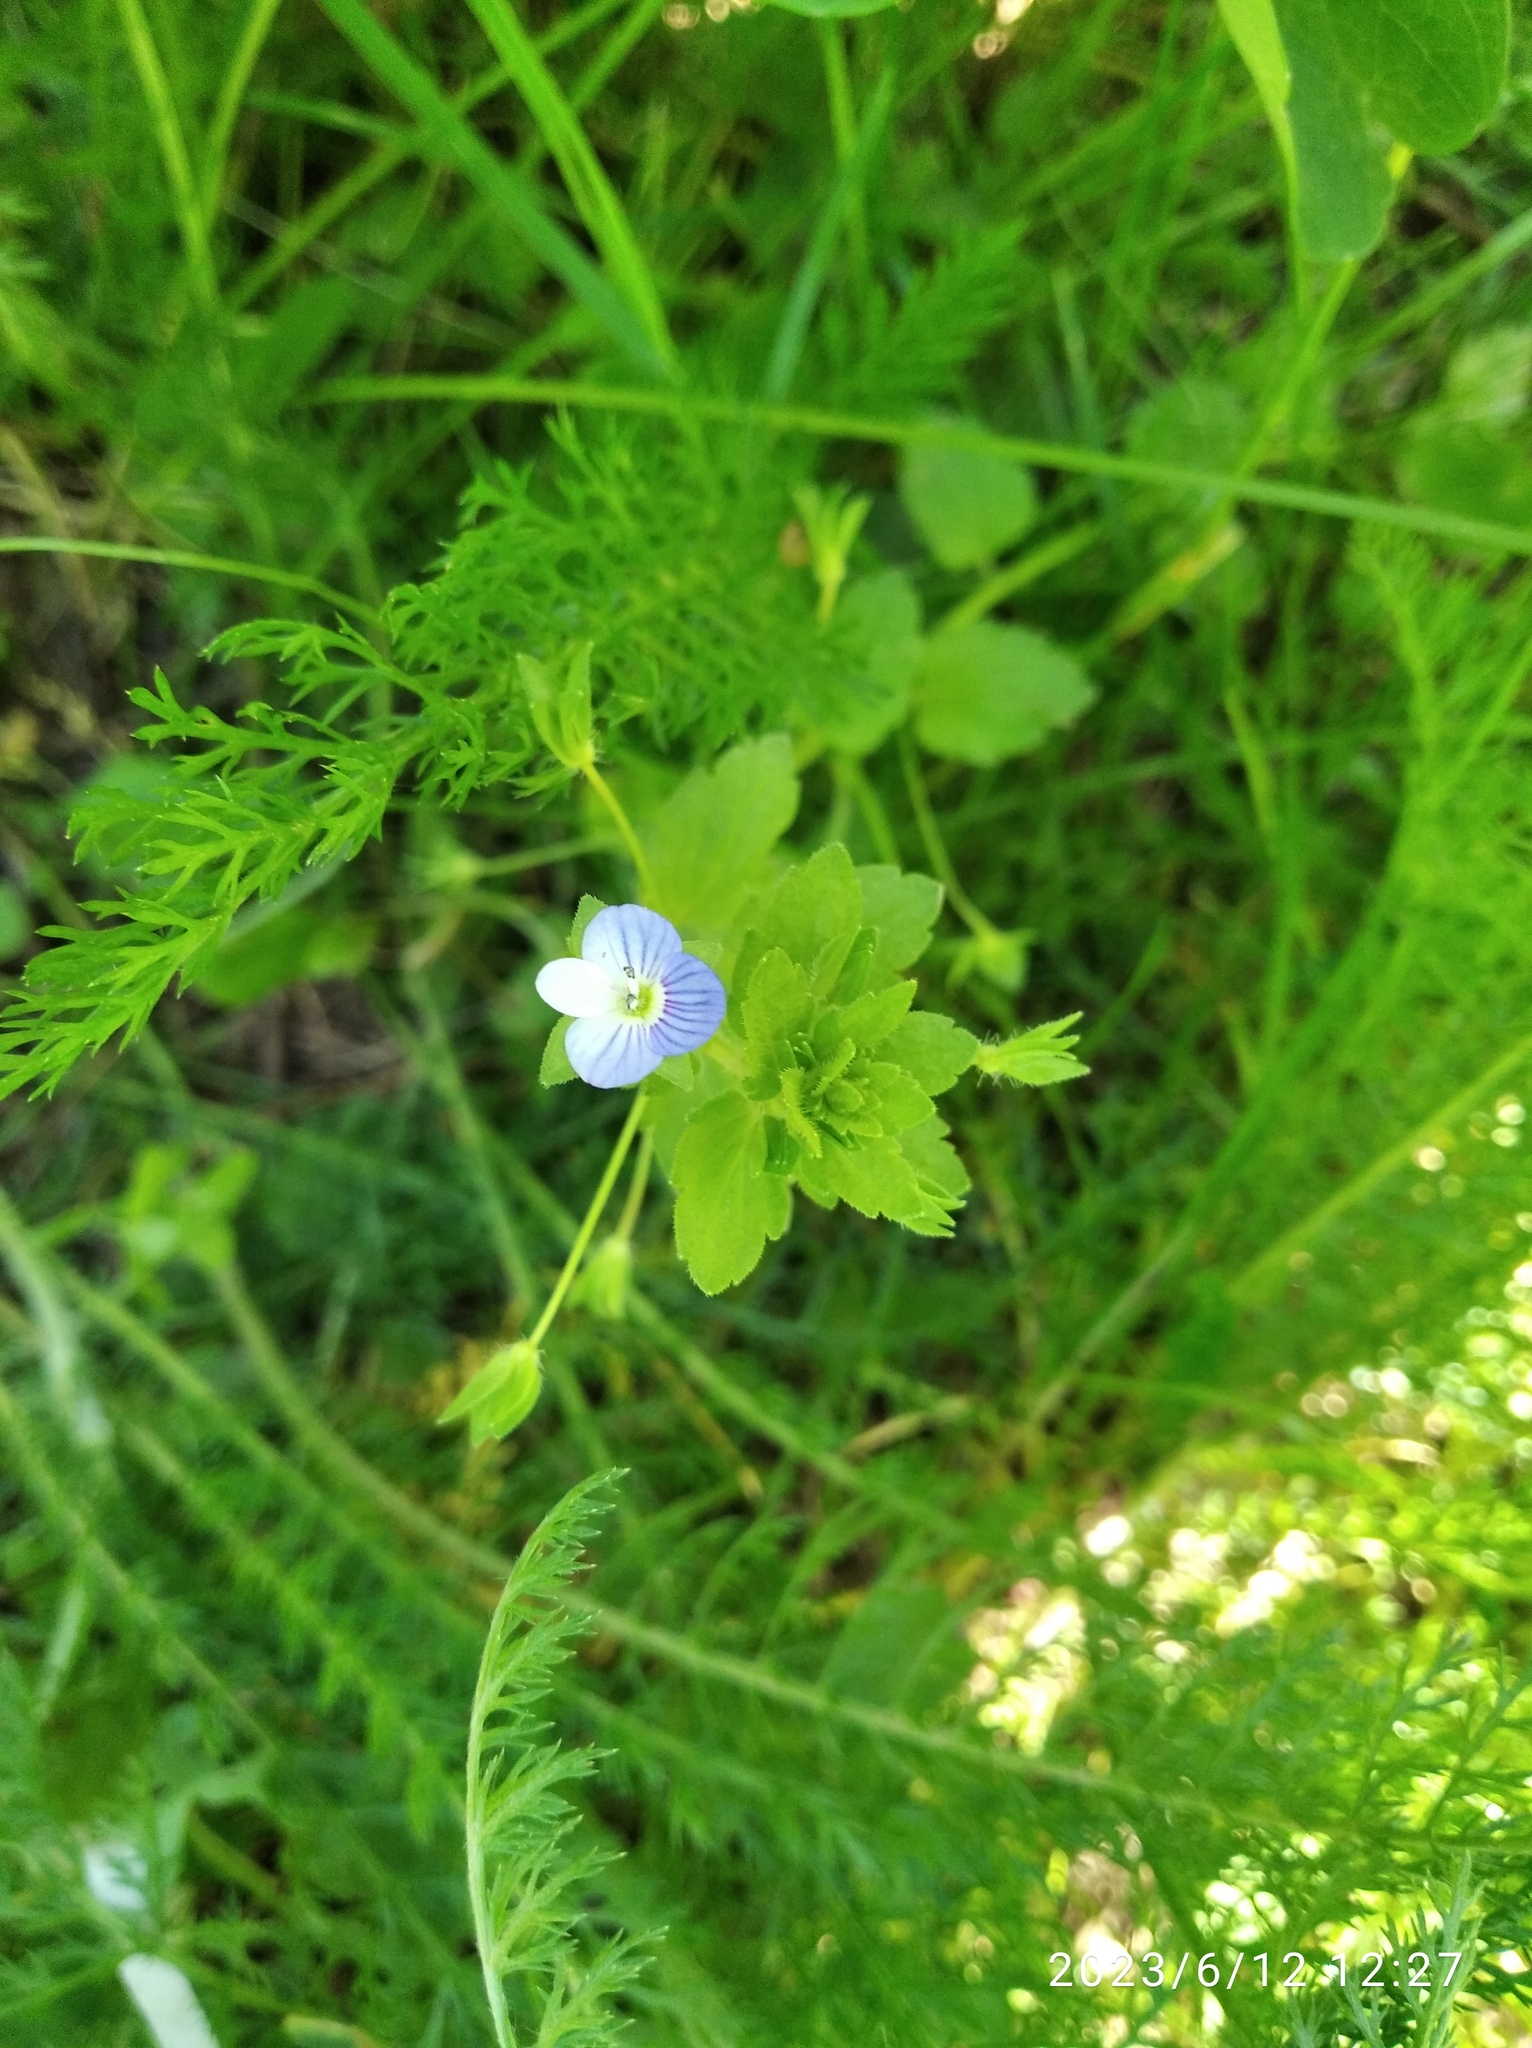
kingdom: Plantae
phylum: Tracheophyta
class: Magnoliopsida
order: Lamiales
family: Plantaginaceae
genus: Veronica
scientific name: Veronica persica
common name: Common field-speedwell
